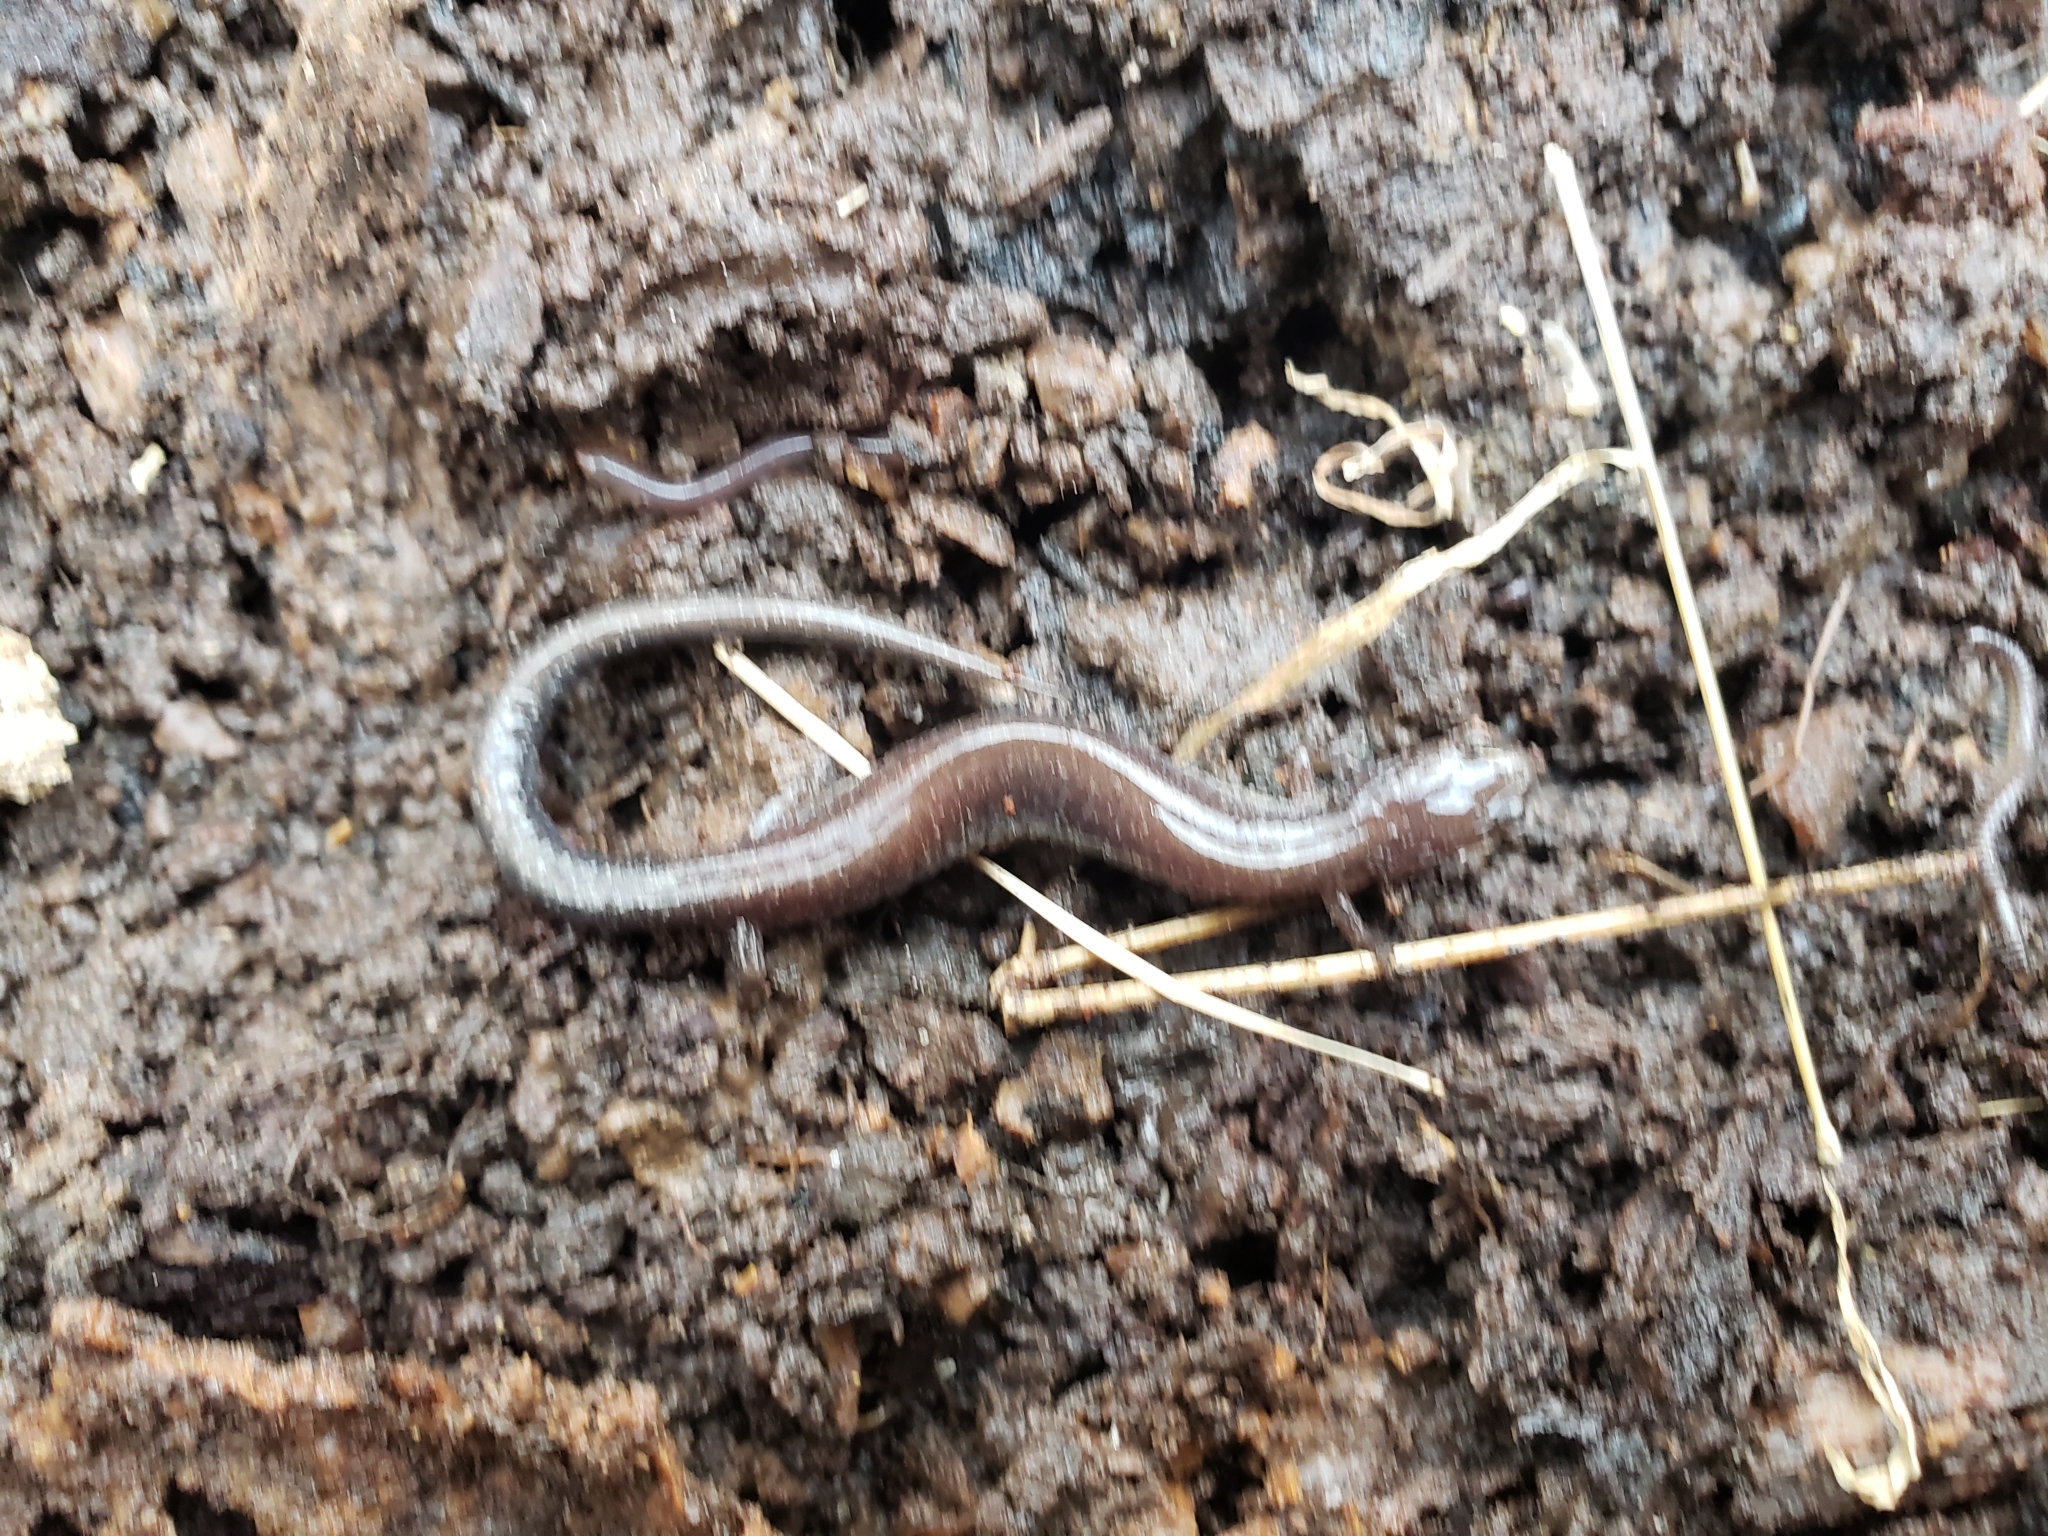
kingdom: Animalia
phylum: Chordata
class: Amphibia
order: Caudata
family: Plethodontidae
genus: Plethodon
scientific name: Plethodon cinereus
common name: Redback salamander
